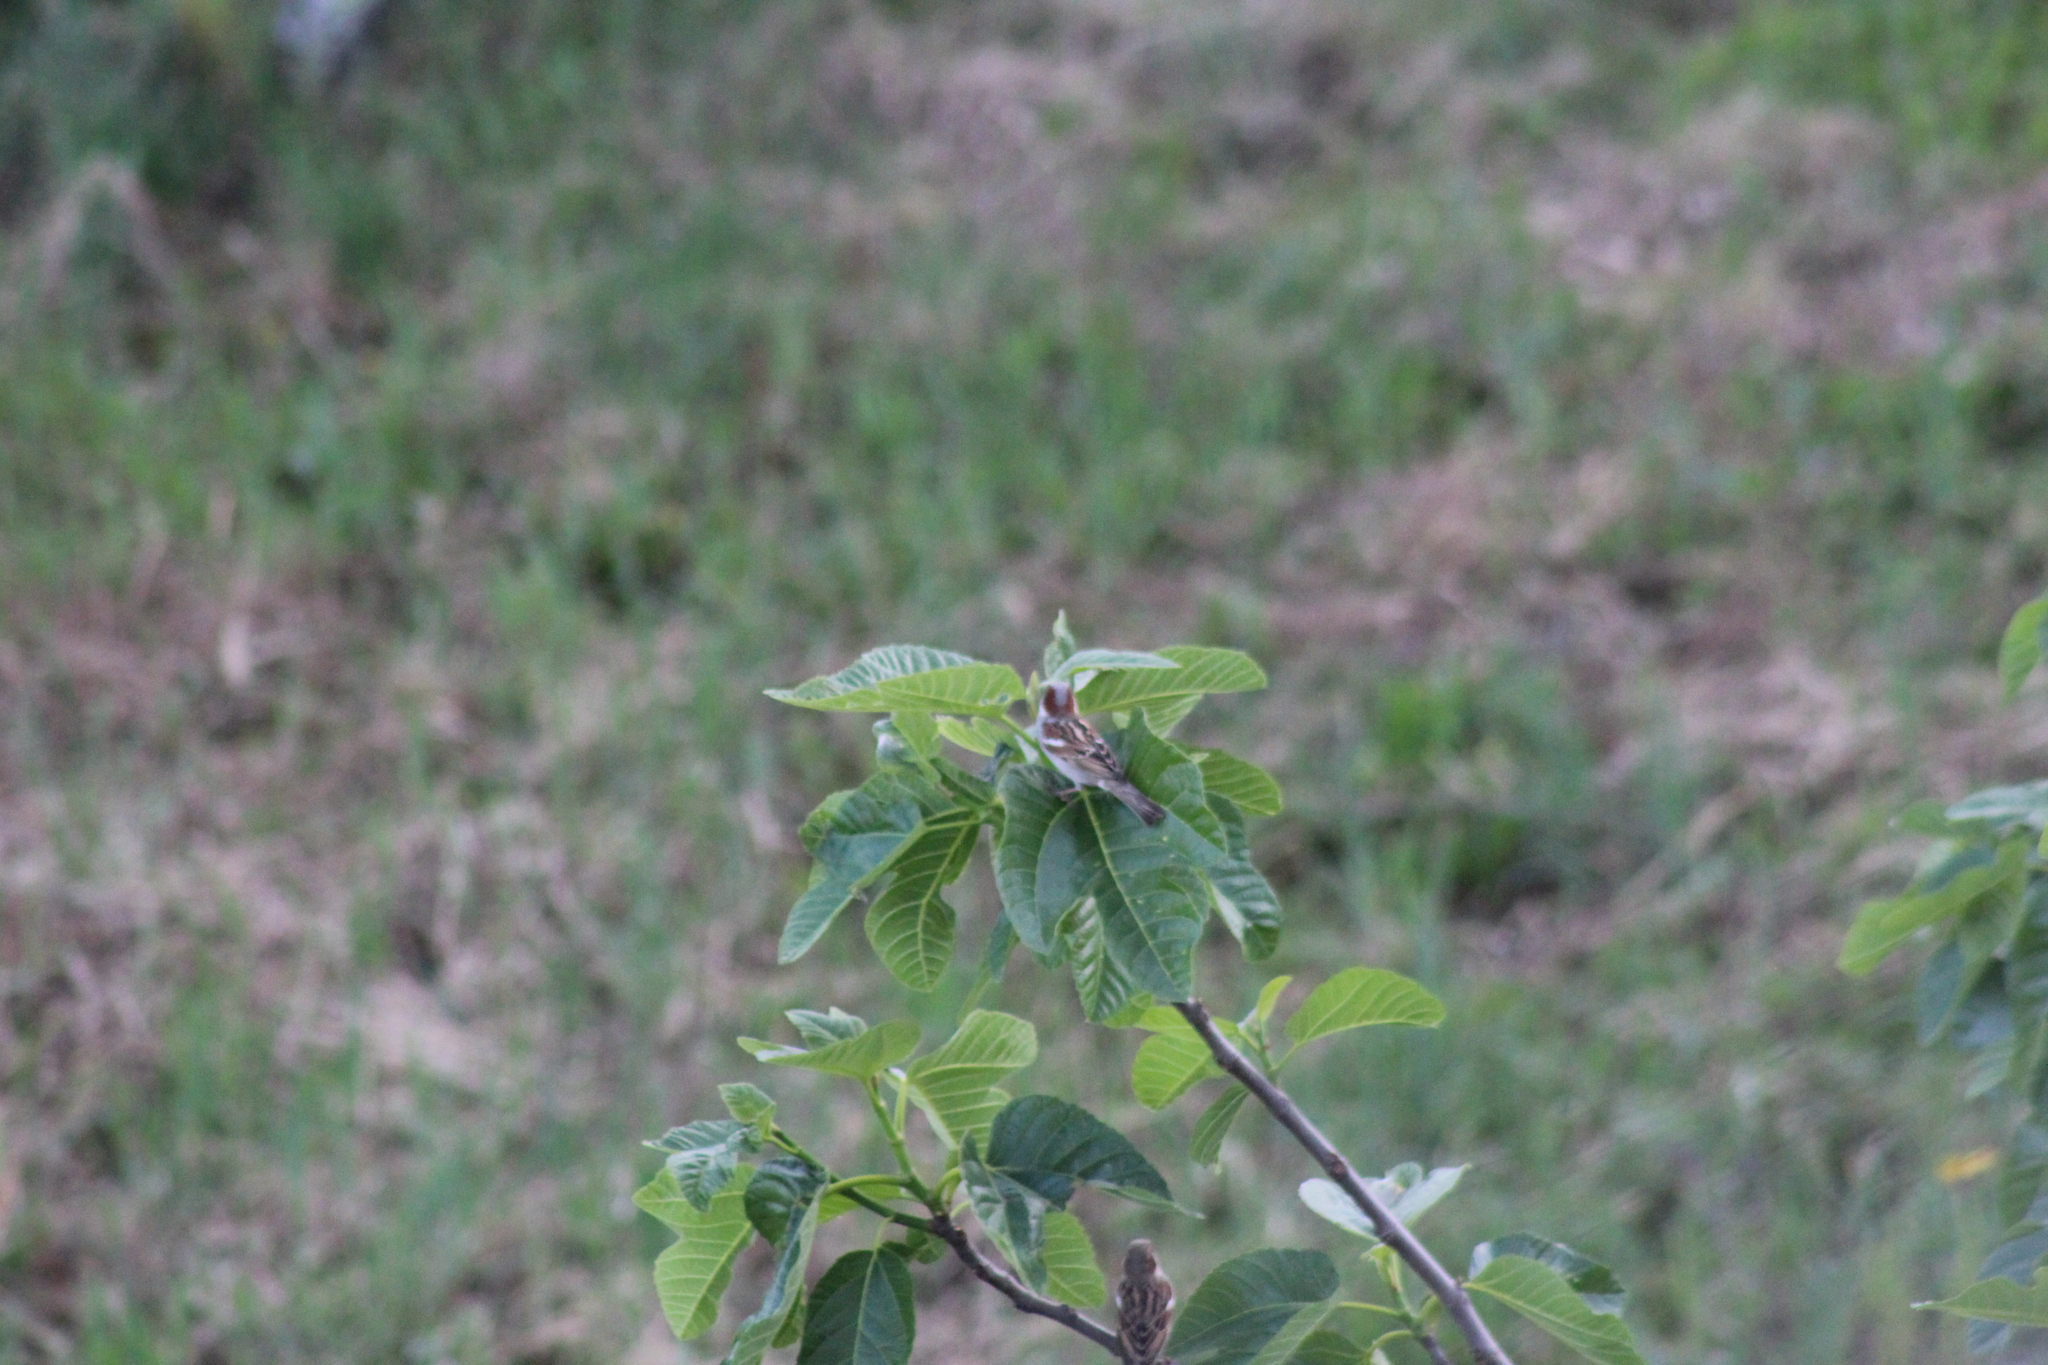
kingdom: Animalia
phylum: Chordata
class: Aves
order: Passeriformes
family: Passeridae
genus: Passer
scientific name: Passer domesticus
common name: House sparrow
